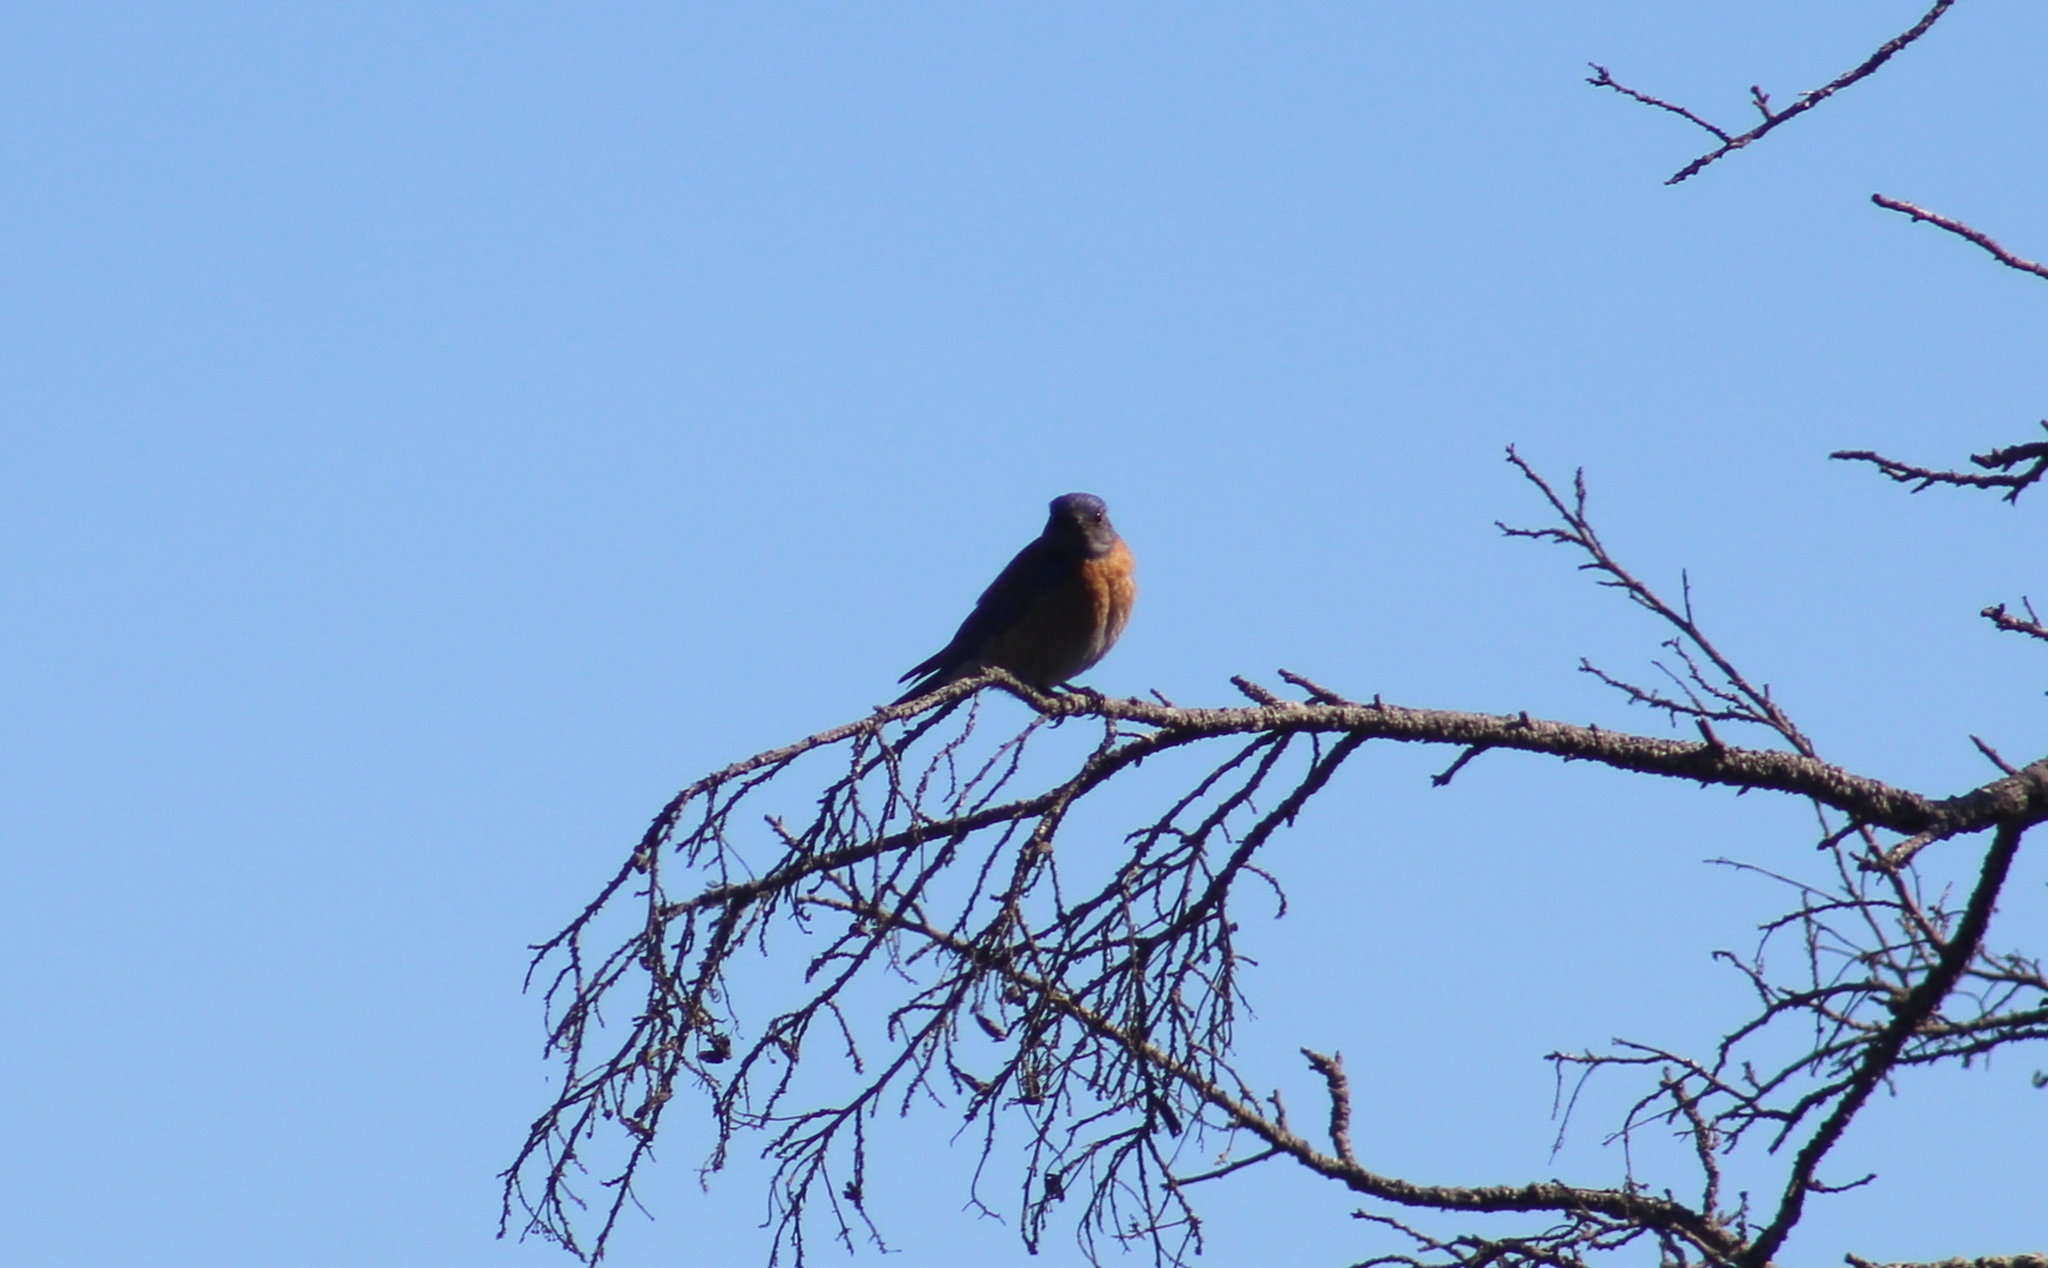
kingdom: Animalia
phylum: Chordata
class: Aves
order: Passeriformes
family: Turdidae
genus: Sialia
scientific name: Sialia mexicana
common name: Western bluebird
